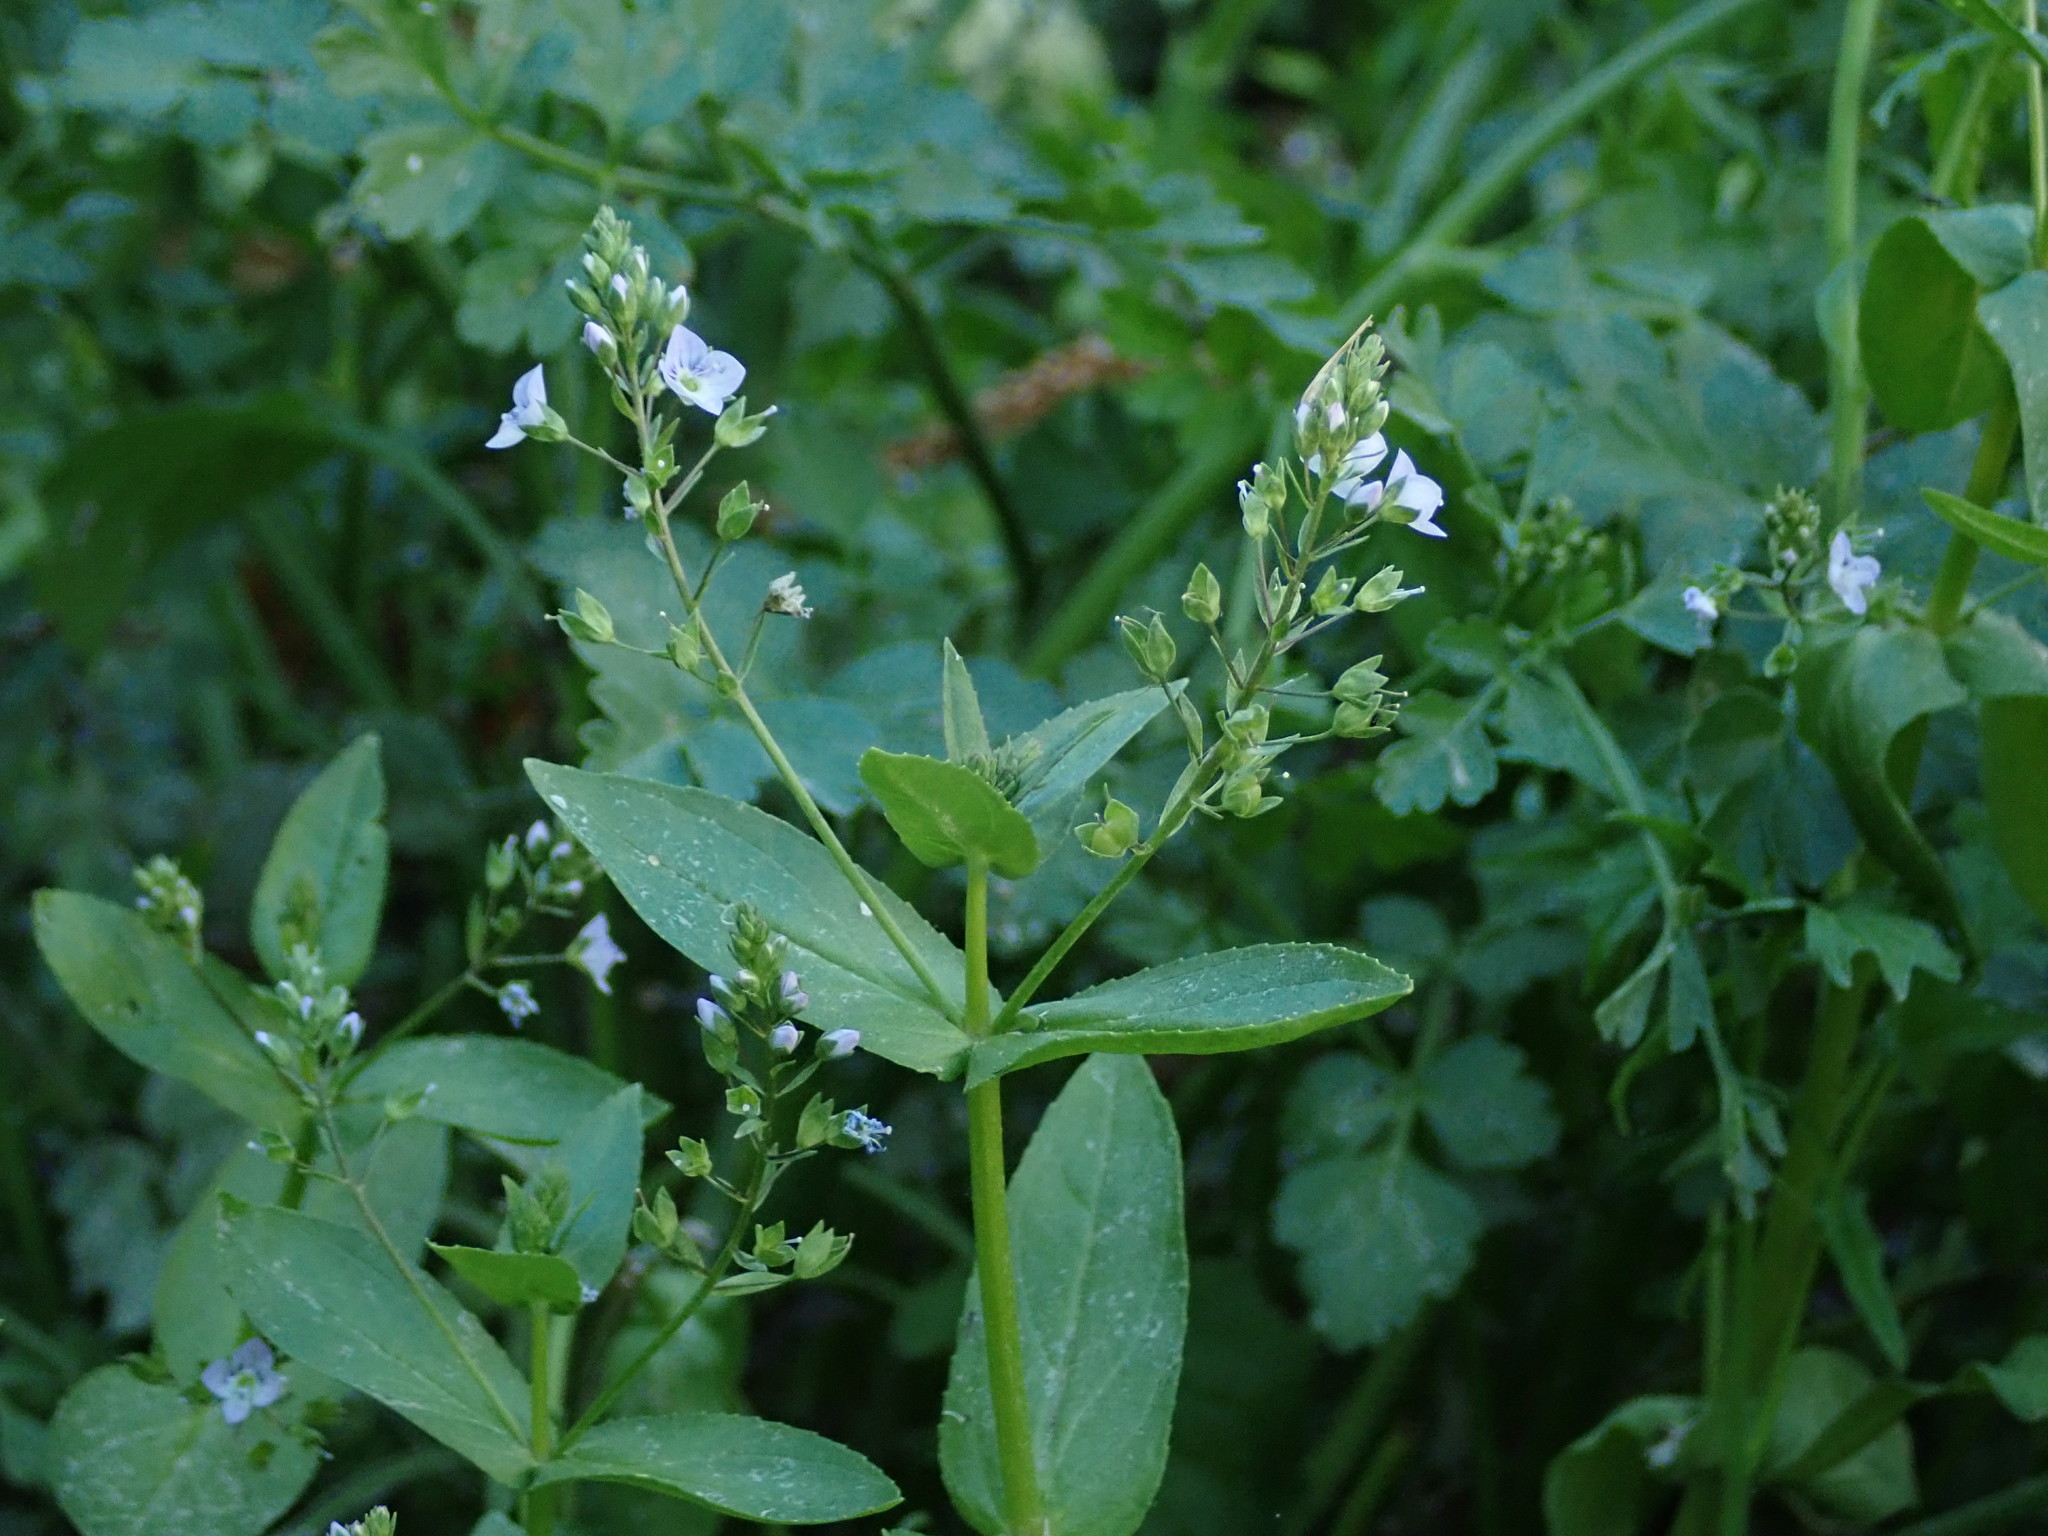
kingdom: Plantae
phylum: Tracheophyta
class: Magnoliopsida
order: Lamiales
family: Plantaginaceae
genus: Veronica
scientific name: Veronica anagallis-aquatica
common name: Water speedwell
